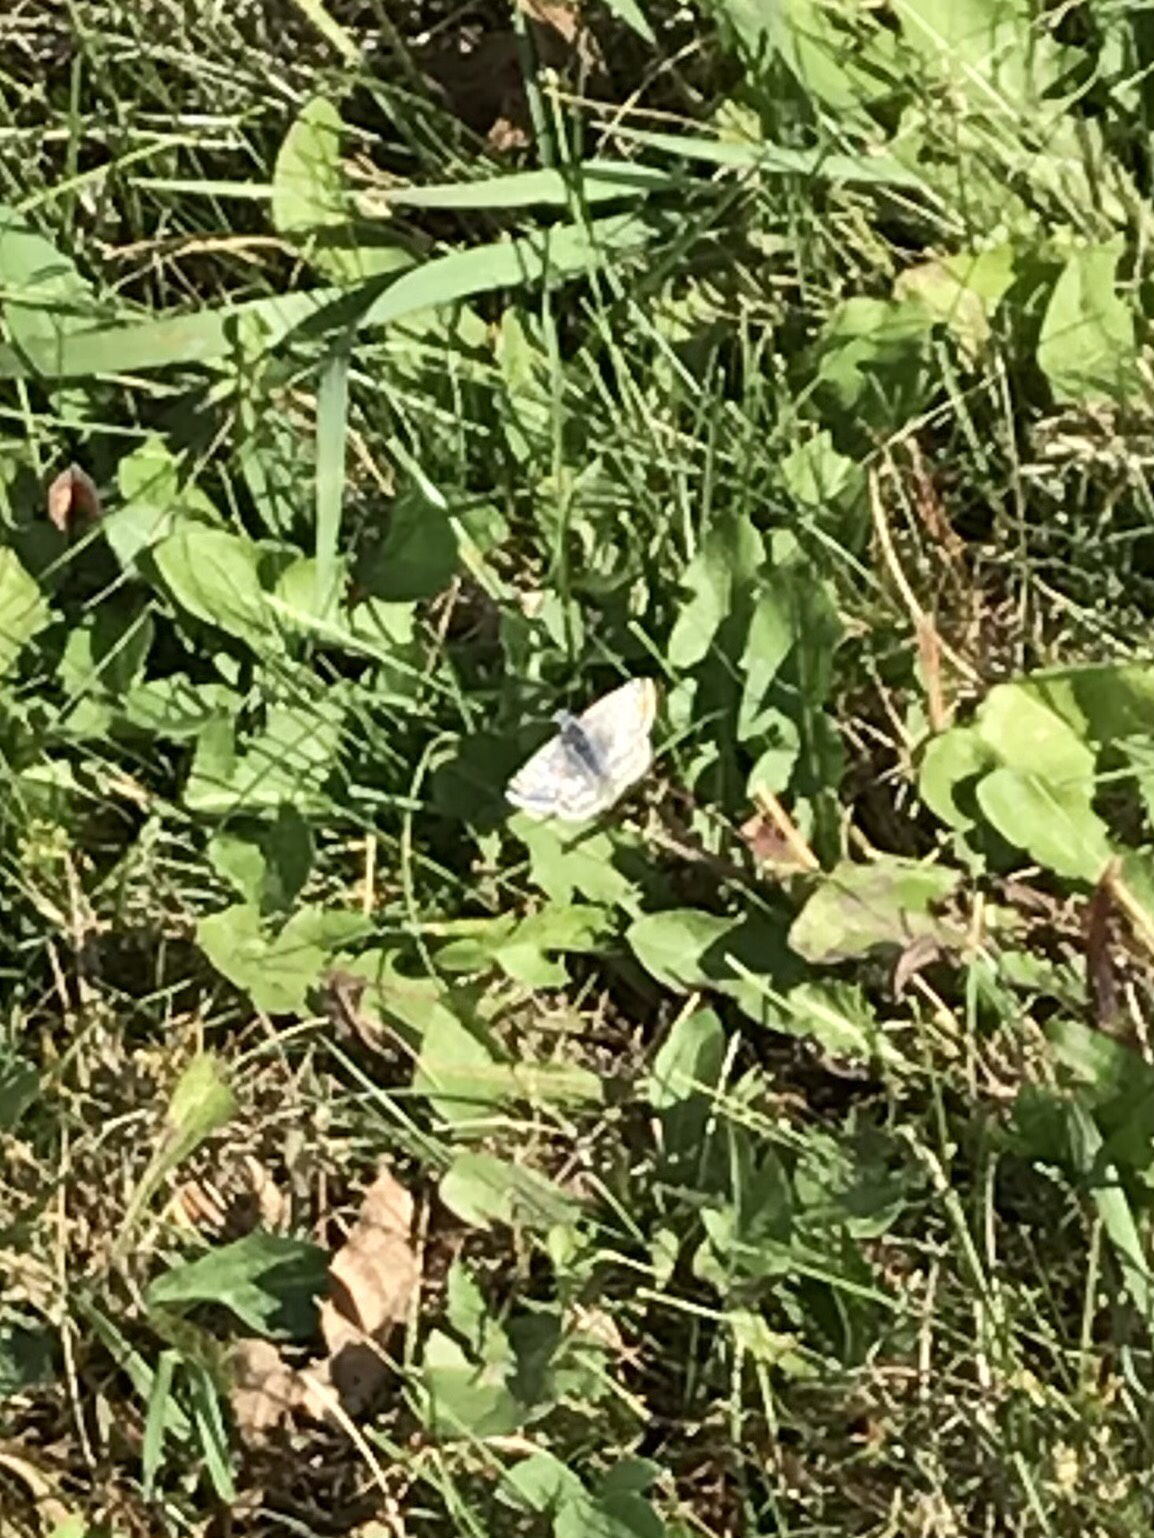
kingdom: Animalia
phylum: Arthropoda
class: Insecta
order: Lepidoptera
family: Hesperiidae
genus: Burnsius
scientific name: Burnsius communis
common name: Common checkered-skipper
